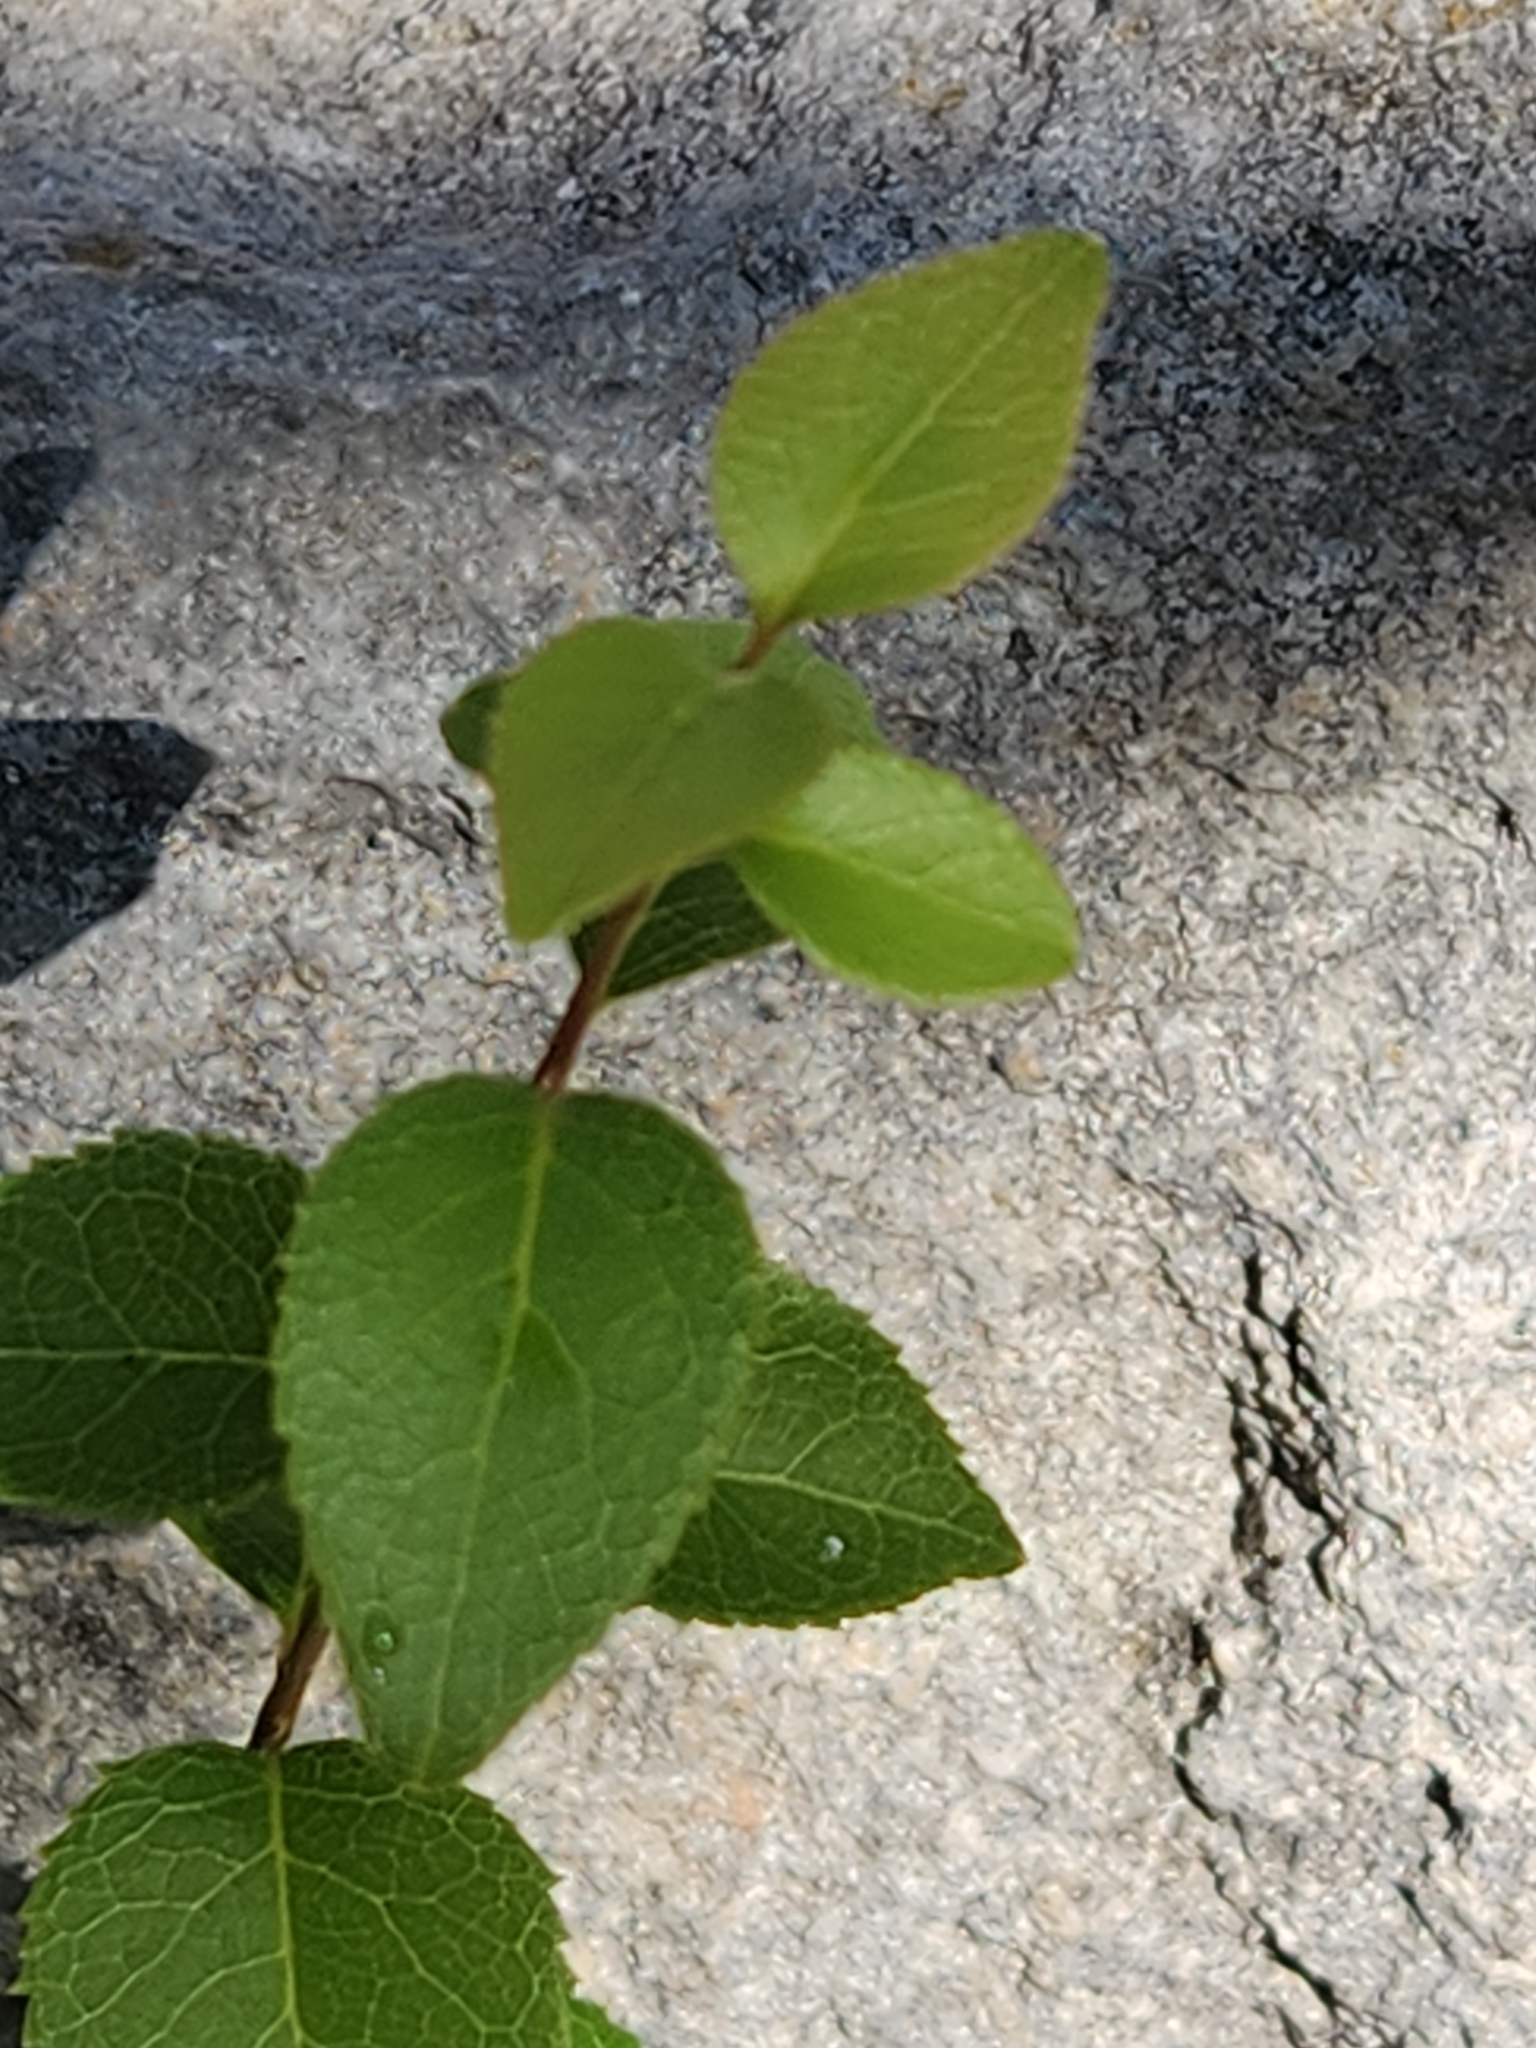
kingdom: Plantae
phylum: Tracheophyta
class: Magnoliopsida
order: Lamiales
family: Oleaceae
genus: Forestiera
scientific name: Forestiera reticulata
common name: Netleaf swamp-privet
